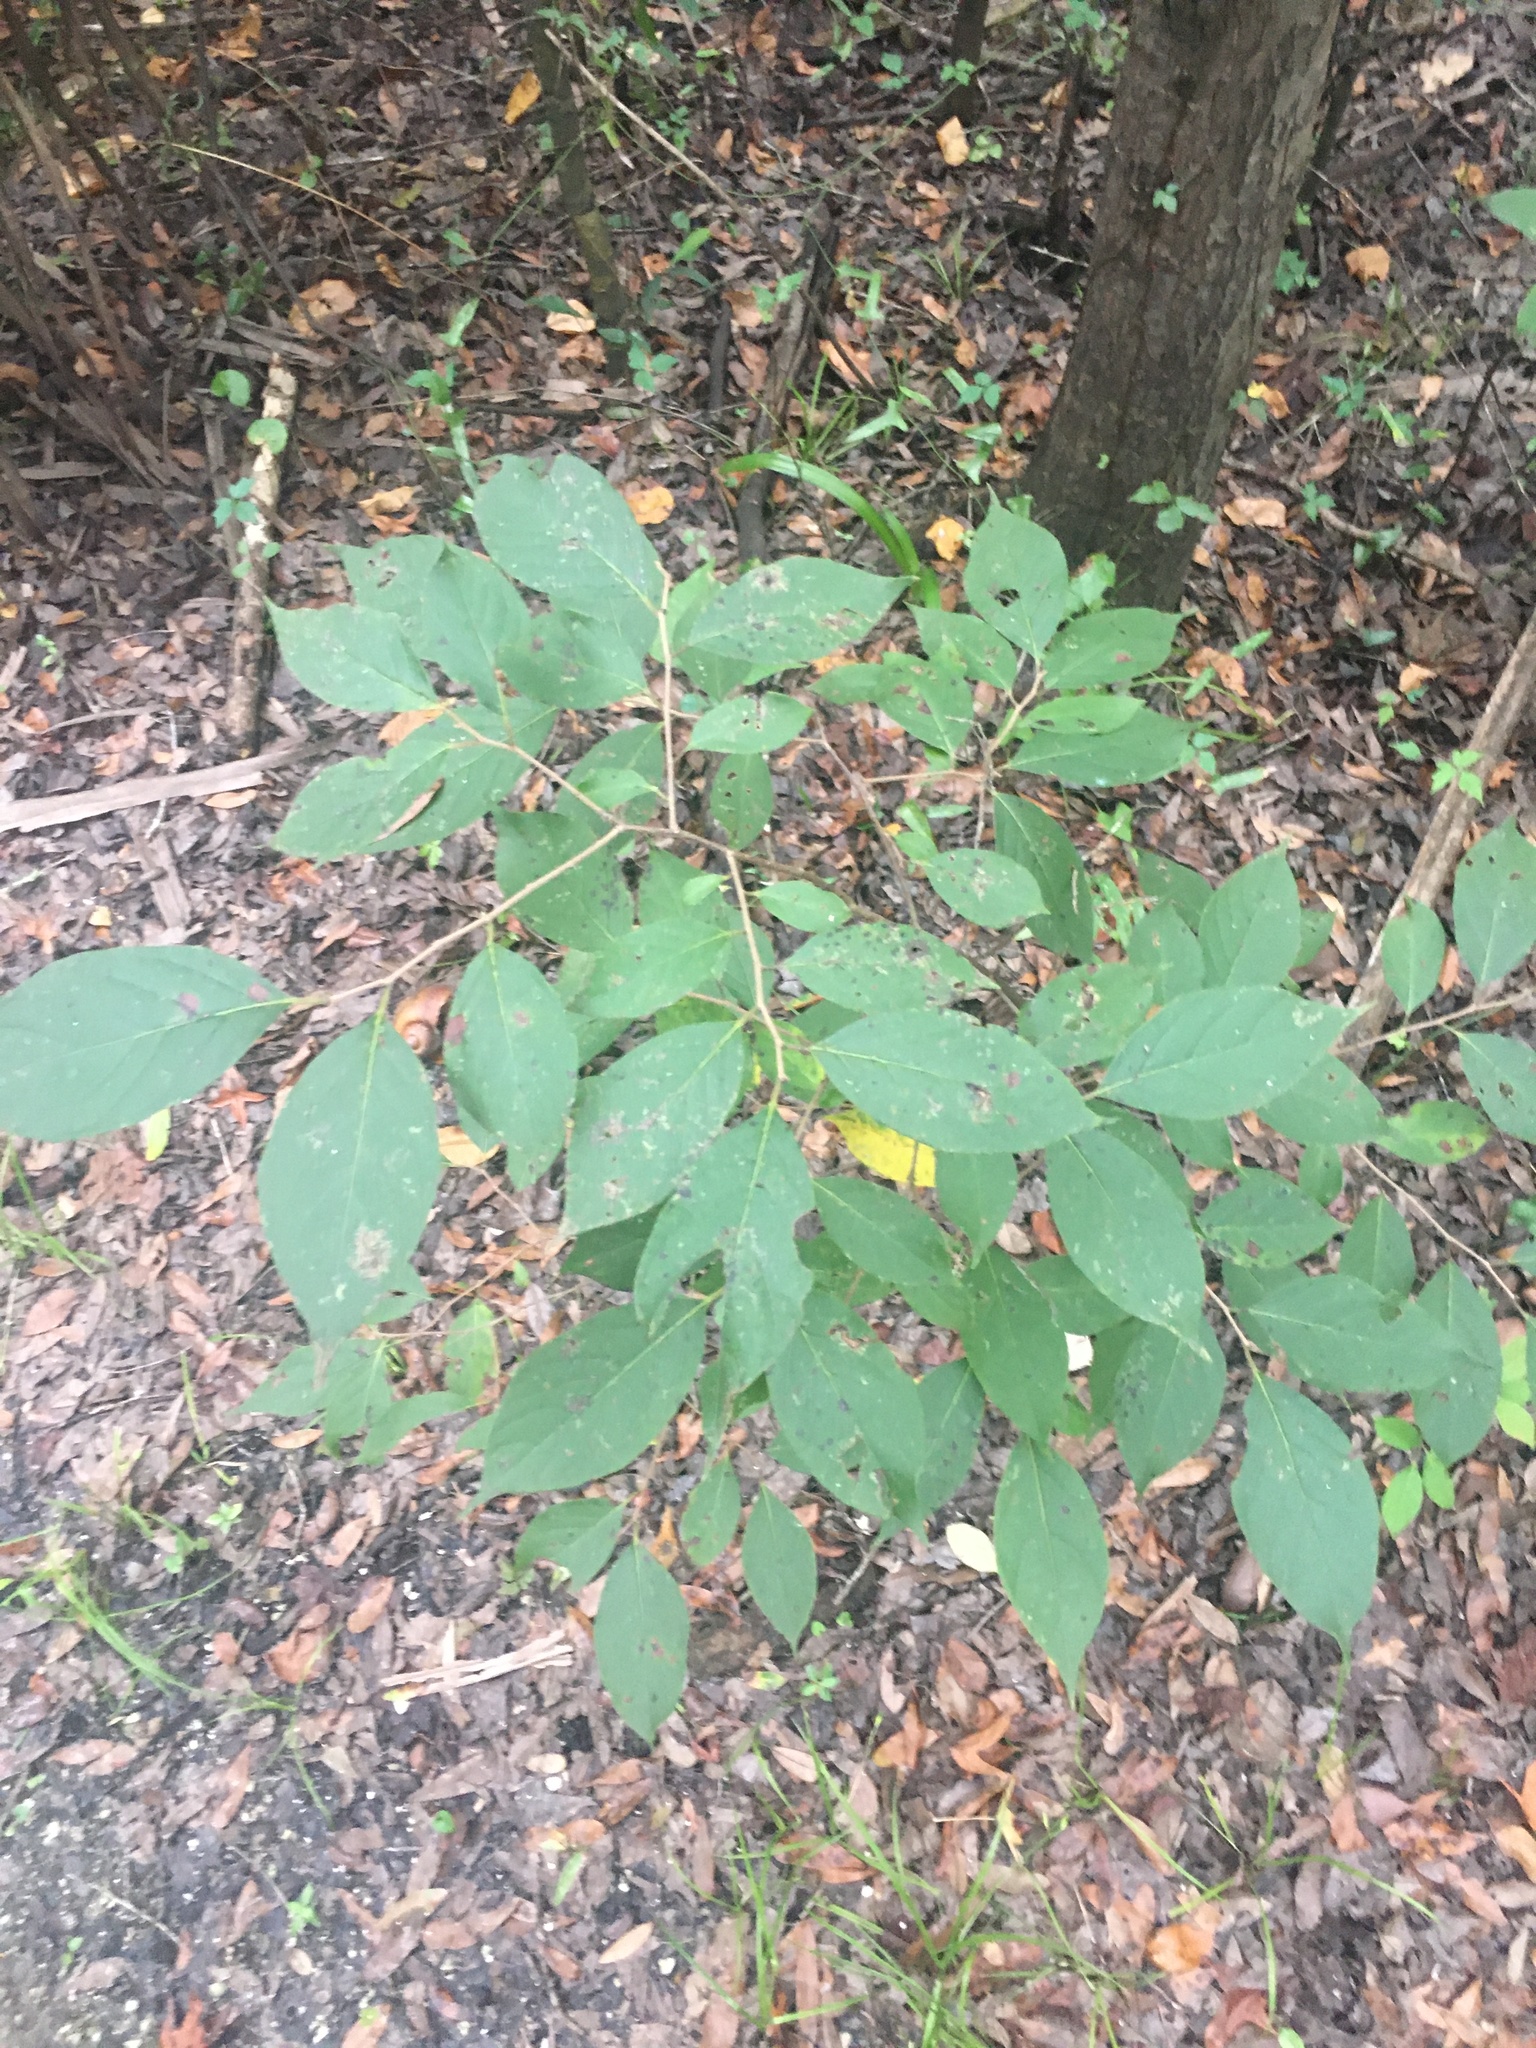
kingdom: Plantae
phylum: Tracheophyta
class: Magnoliopsida
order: Ericales
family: Ebenaceae
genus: Diospyros
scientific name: Diospyros virginiana
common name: Persimmon
